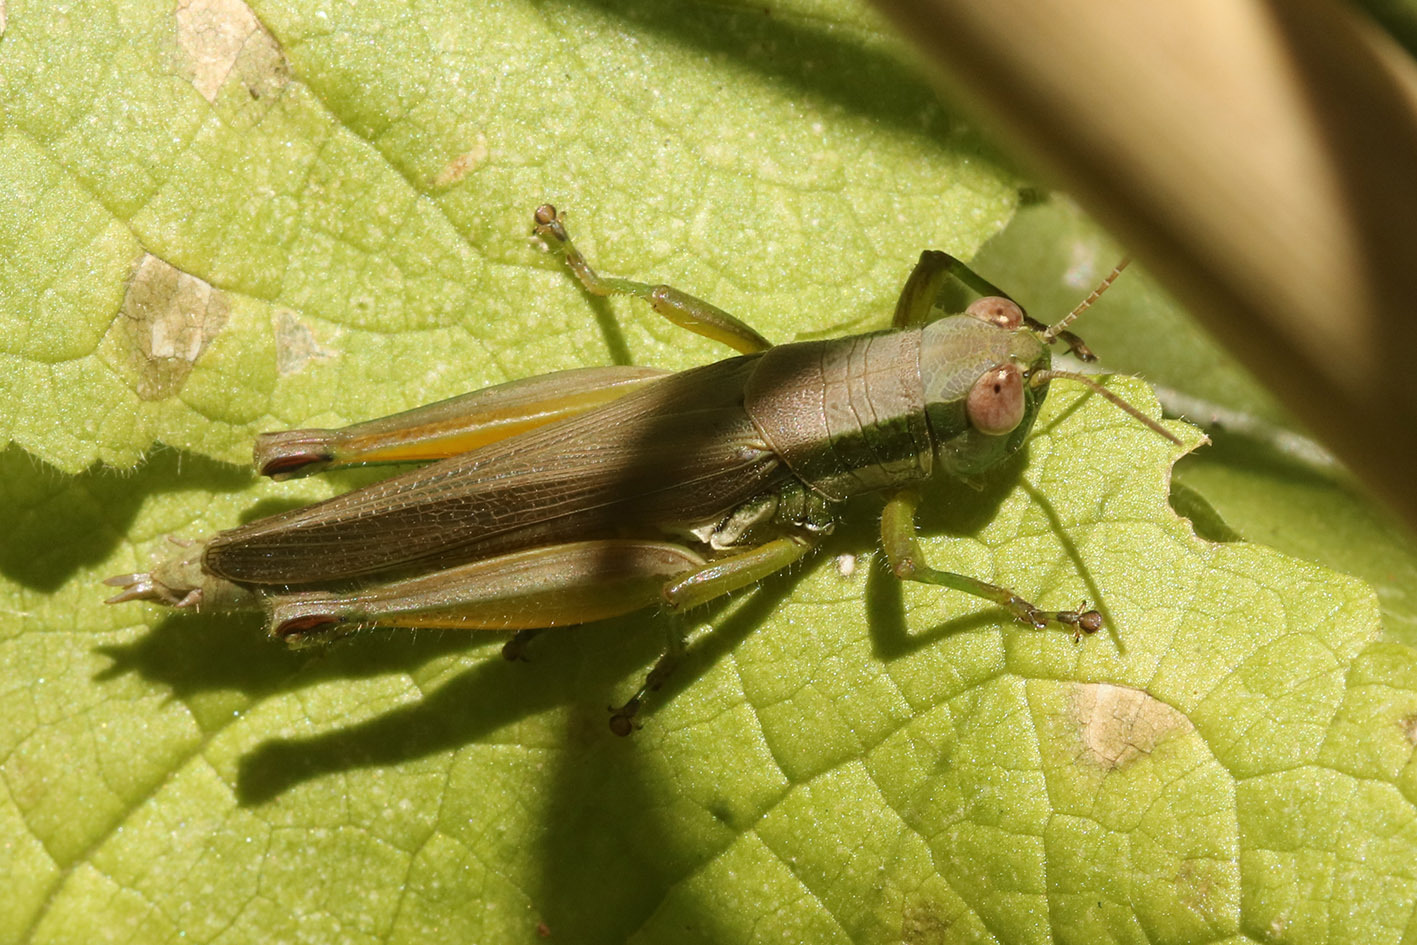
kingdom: Animalia
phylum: Arthropoda
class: Insecta
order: Orthoptera
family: Acrididae
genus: Scotussa
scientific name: Scotussa liebermanni
